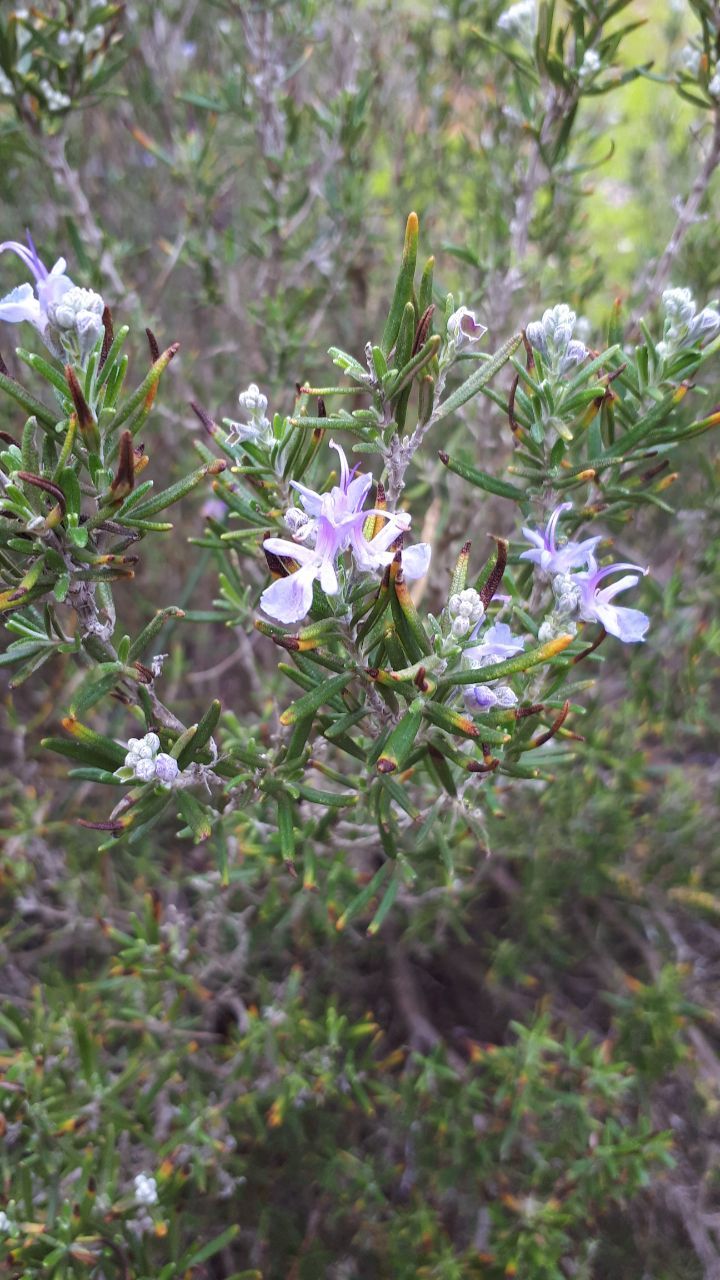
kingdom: Plantae
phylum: Tracheophyta
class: Magnoliopsida
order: Lamiales
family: Lamiaceae
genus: Salvia
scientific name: Salvia rosmarinus
